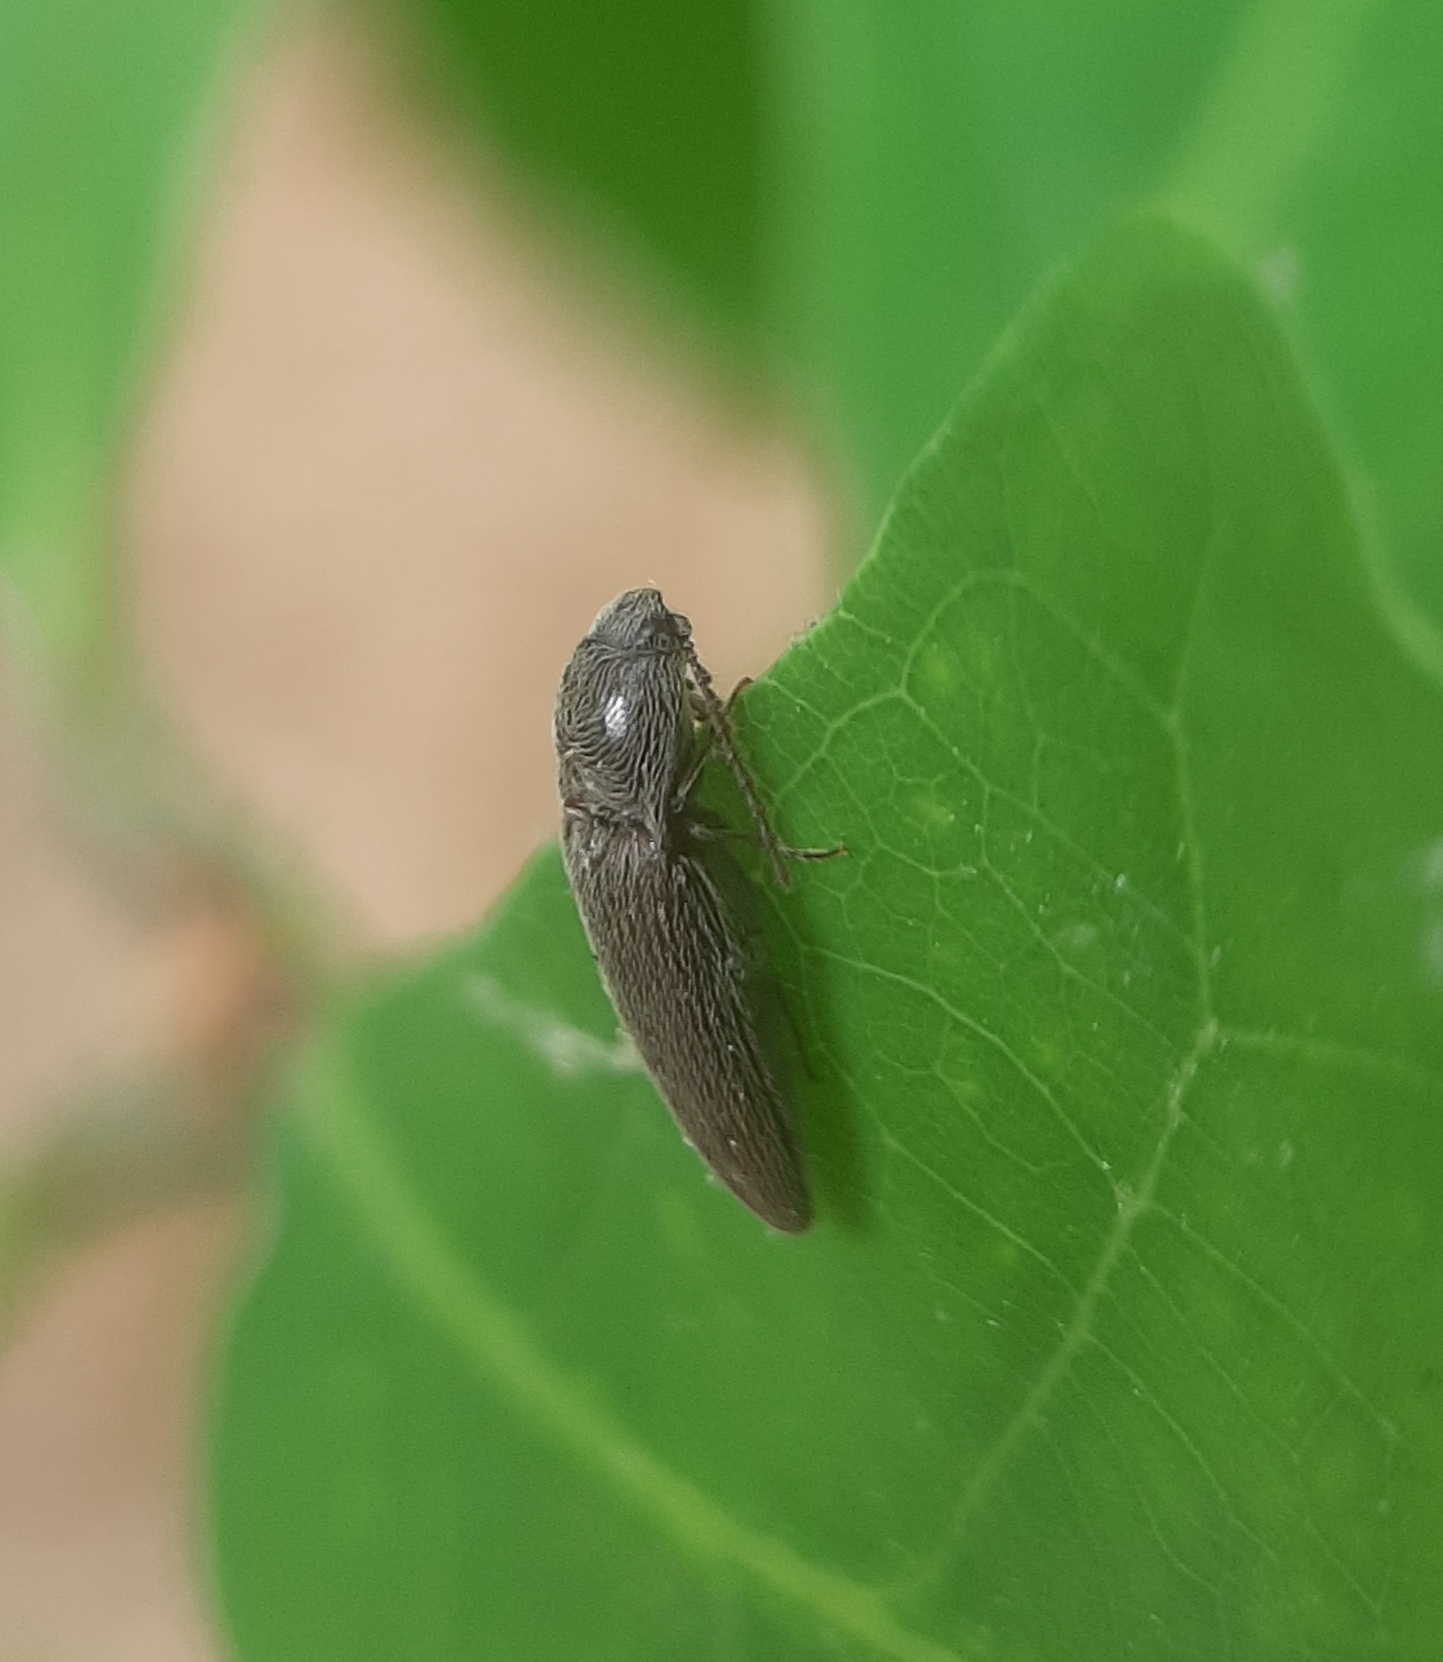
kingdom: Animalia
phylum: Arthropoda
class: Insecta
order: Coleoptera
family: Elateridae
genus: Melanotus
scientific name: Melanotus americanus
